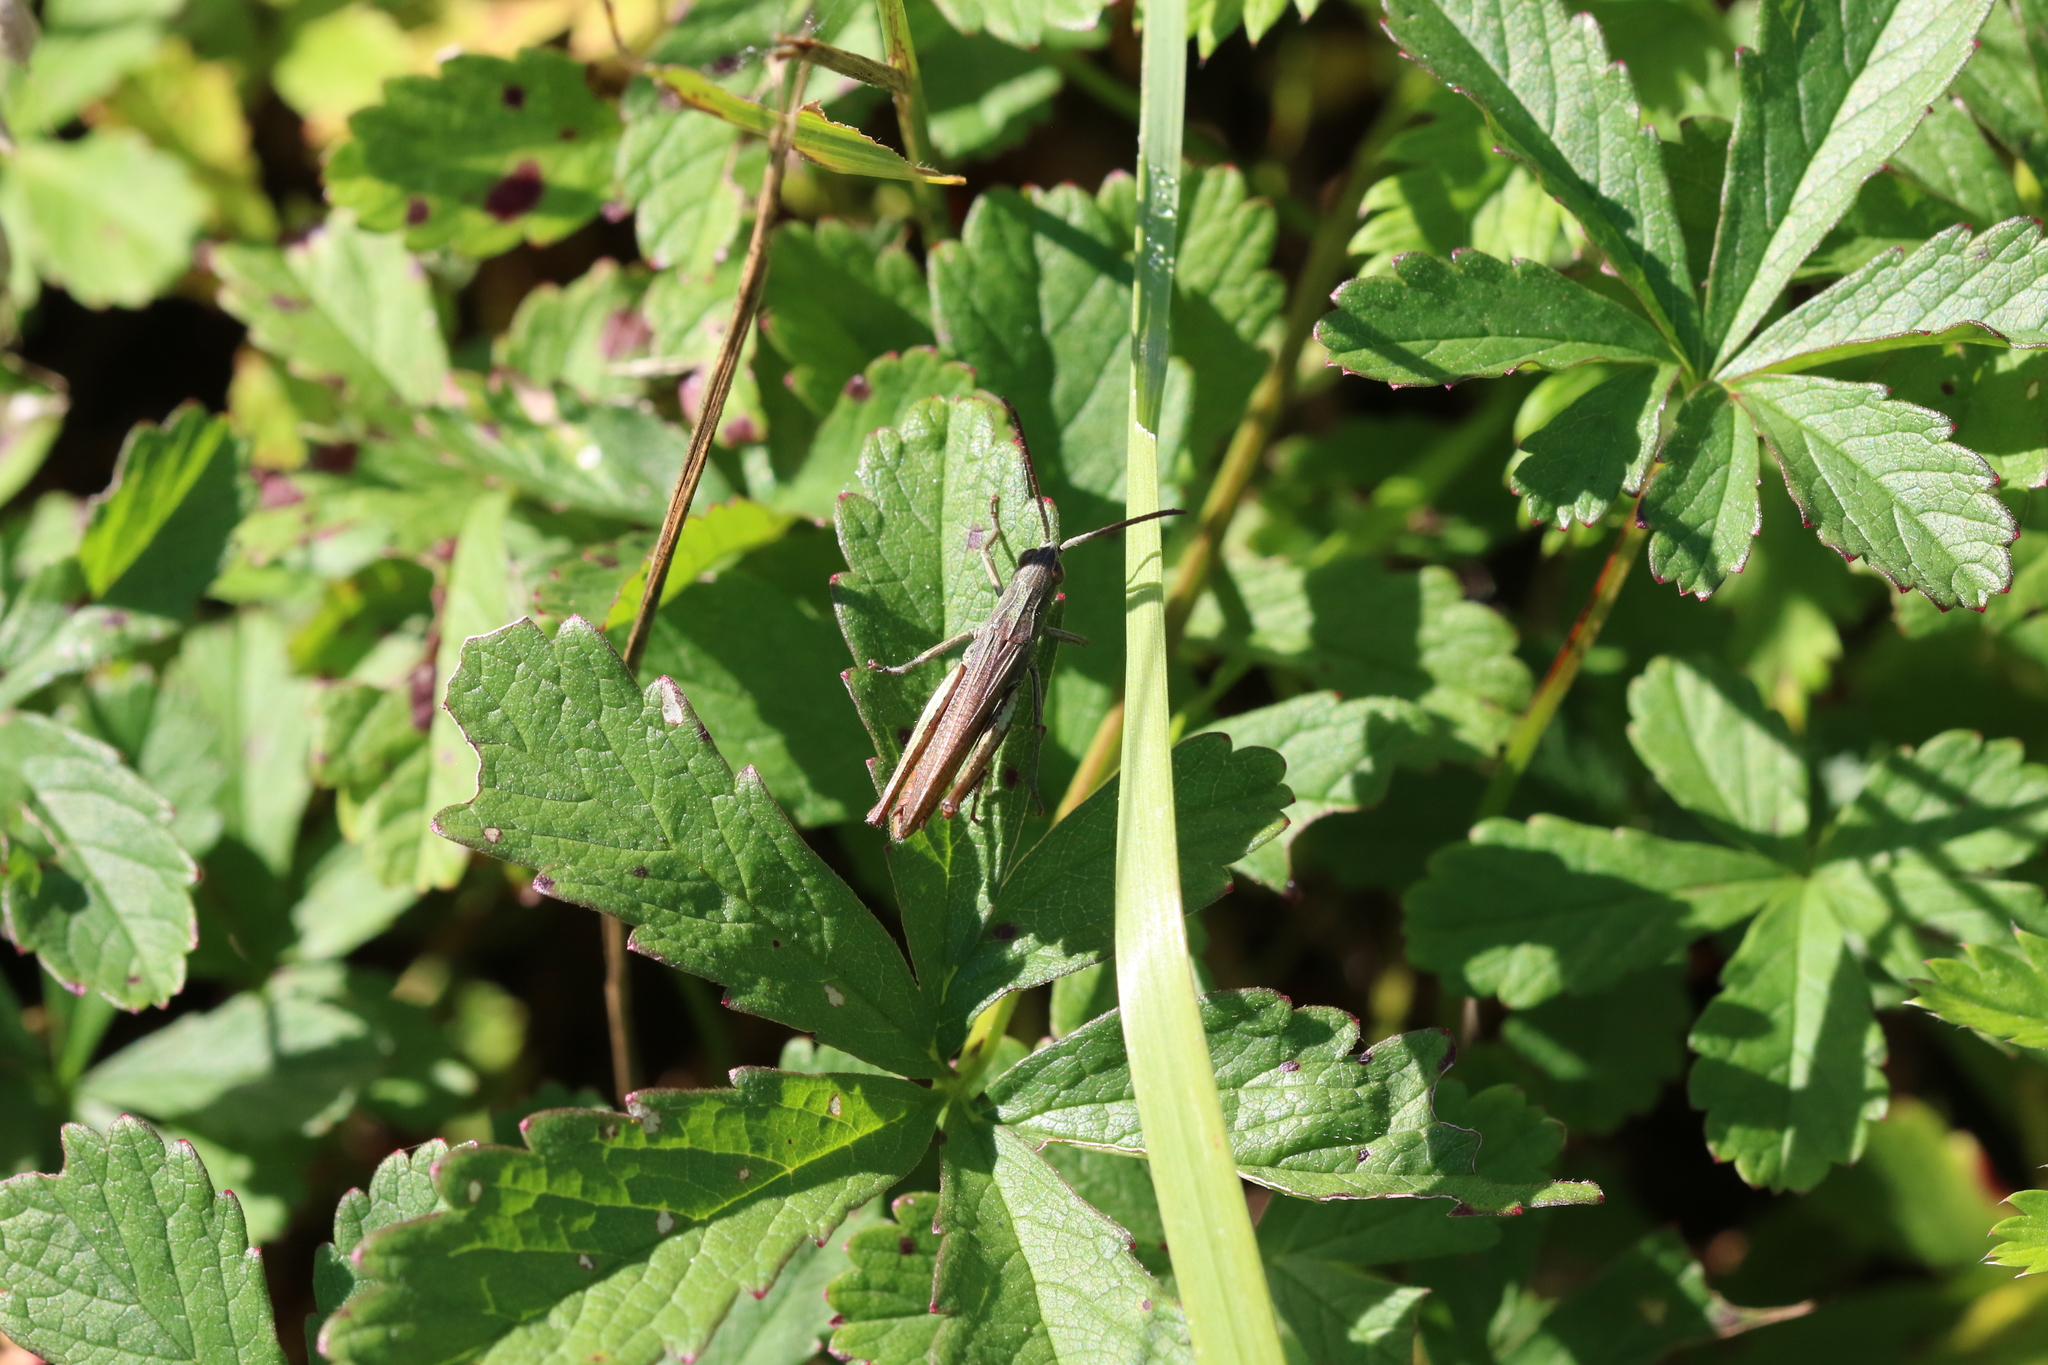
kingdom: Animalia
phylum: Arthropoda
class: Insecta
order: Orthoptera
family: Acrididae
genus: Chorthippus
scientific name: Chorthippus dorsatus
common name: Steppe grasshopper
